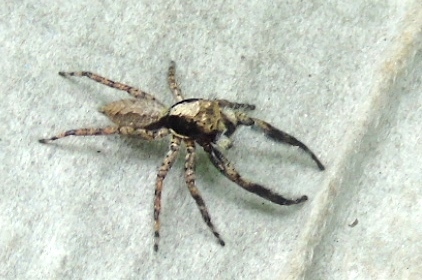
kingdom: Animalia
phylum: Arthropoda
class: Arachnida
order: Araneae
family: Salticidae
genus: Balmaceda
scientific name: Balmaceda
